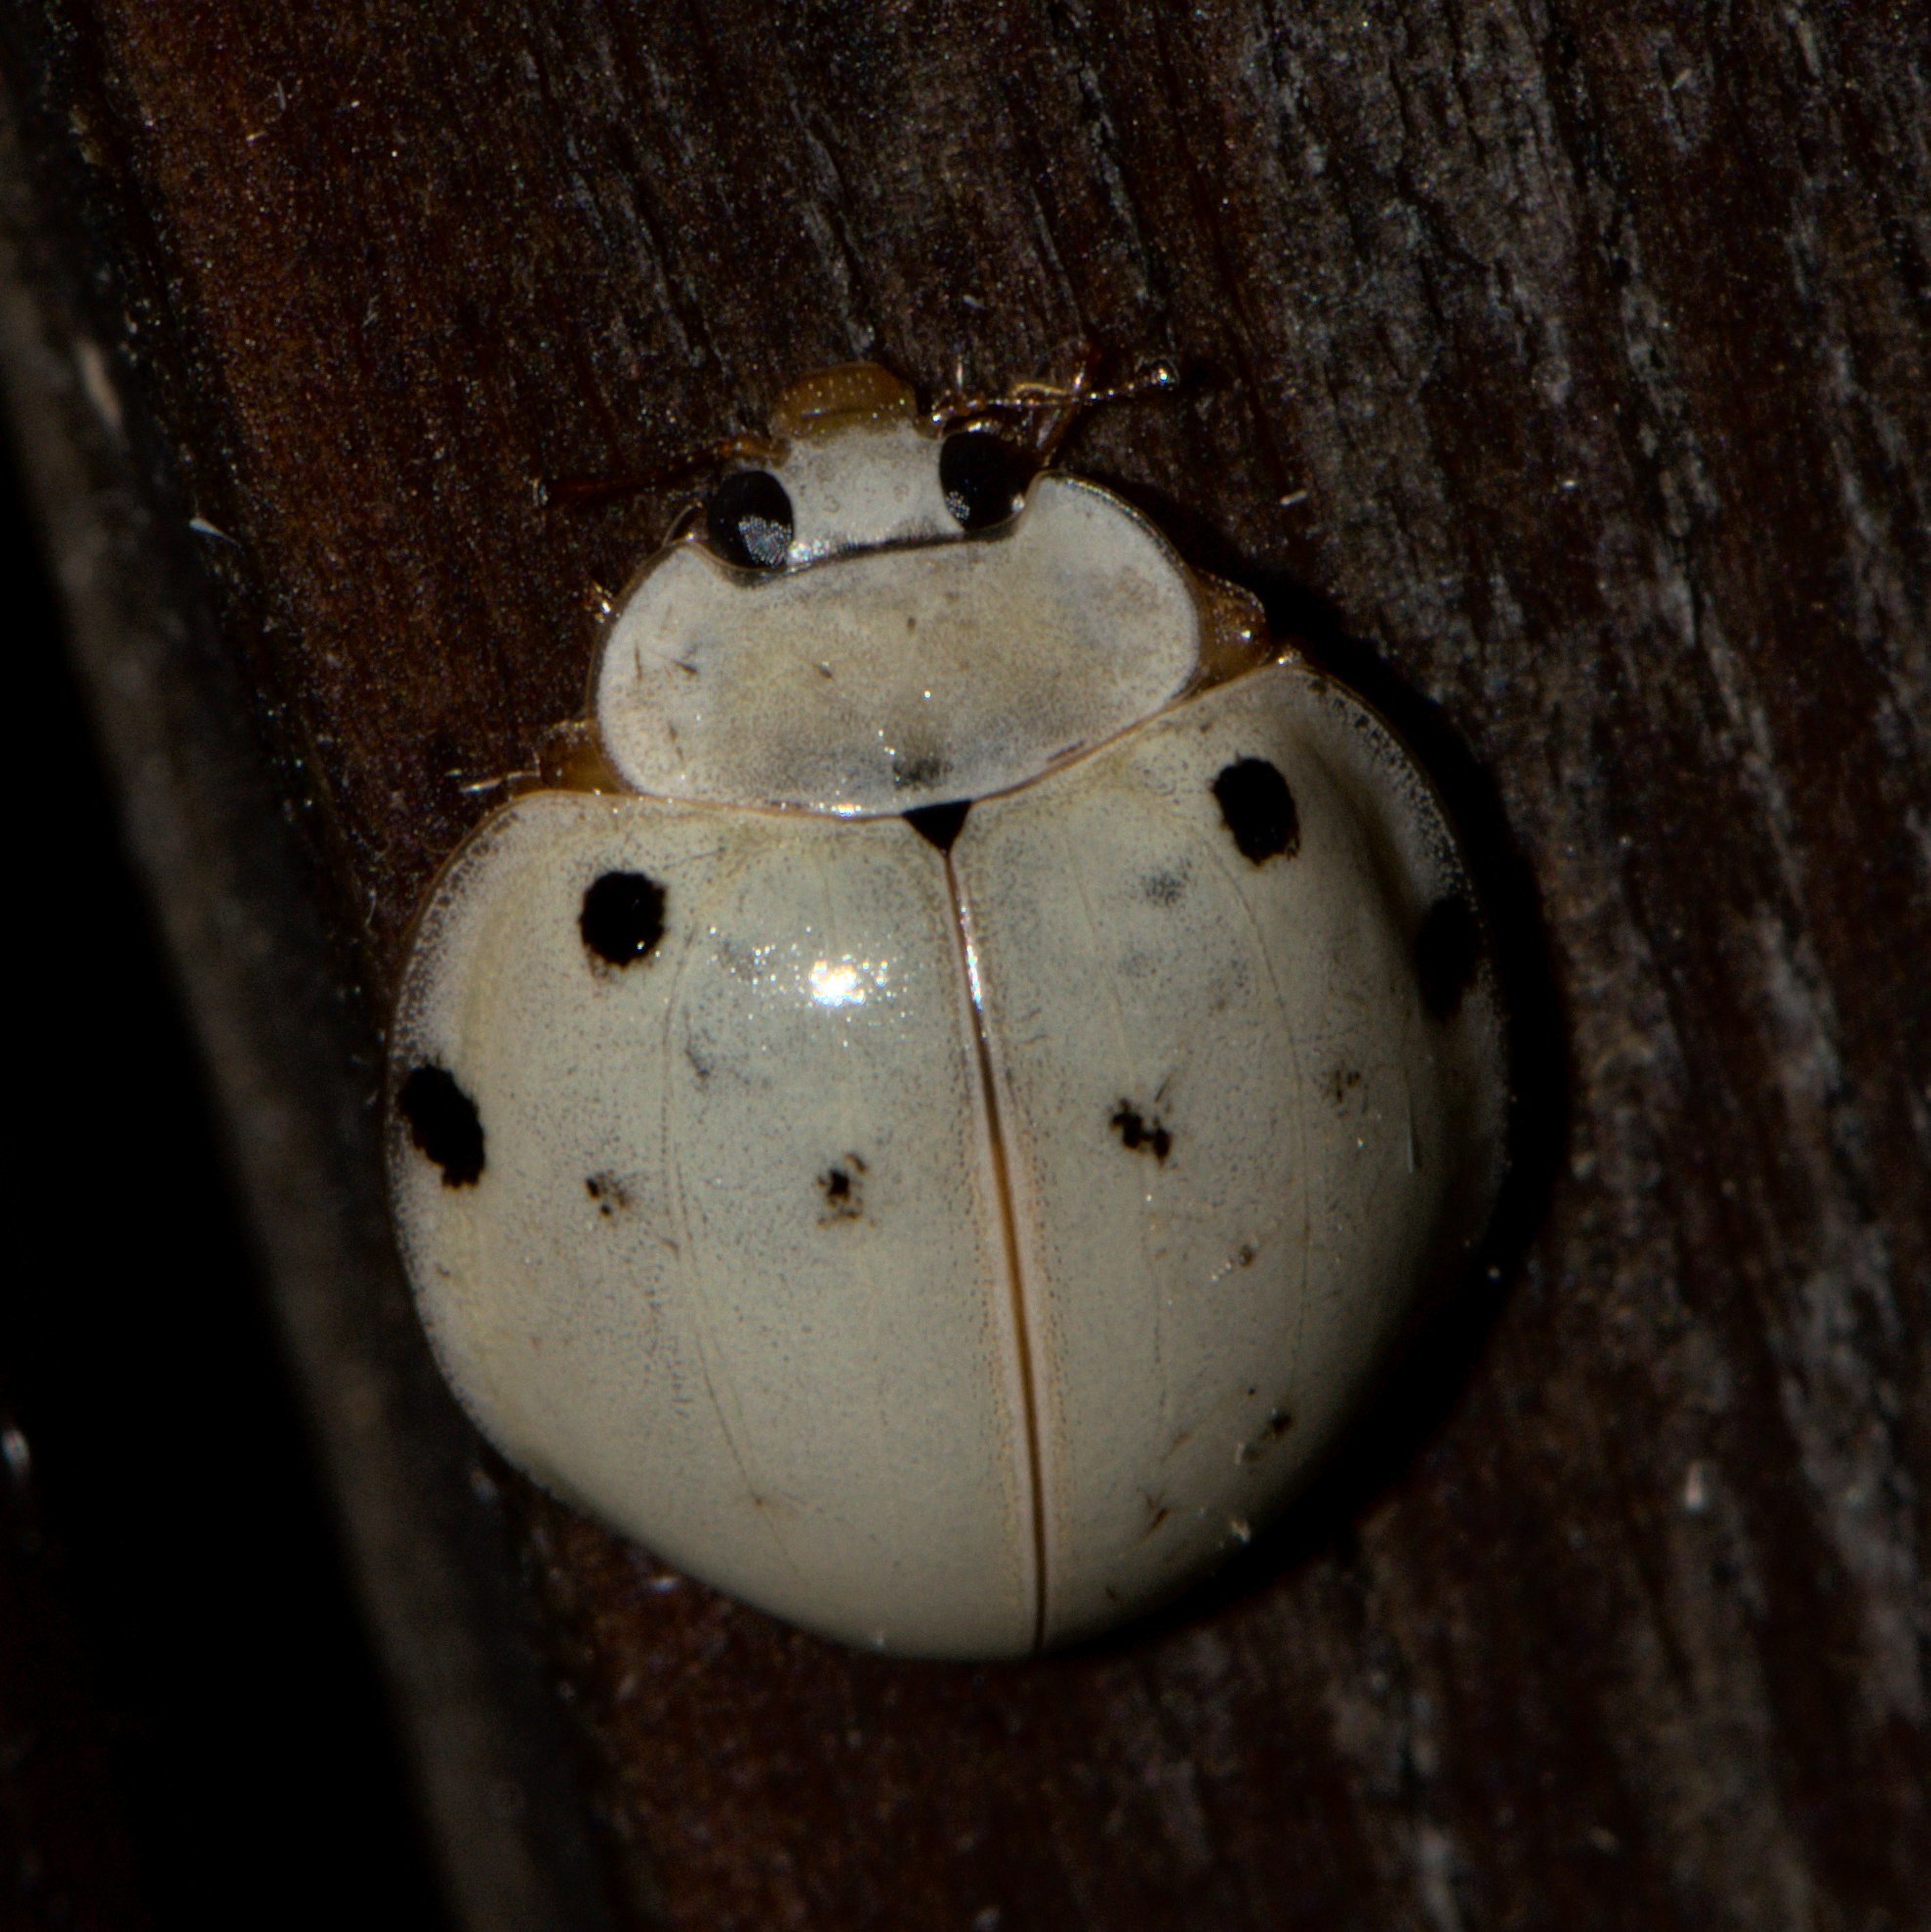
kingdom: Animalia
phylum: Arthropoda
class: Insecta
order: Coleoptera
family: Coccinellidae
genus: Harmonia
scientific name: Harmonia eucharis
